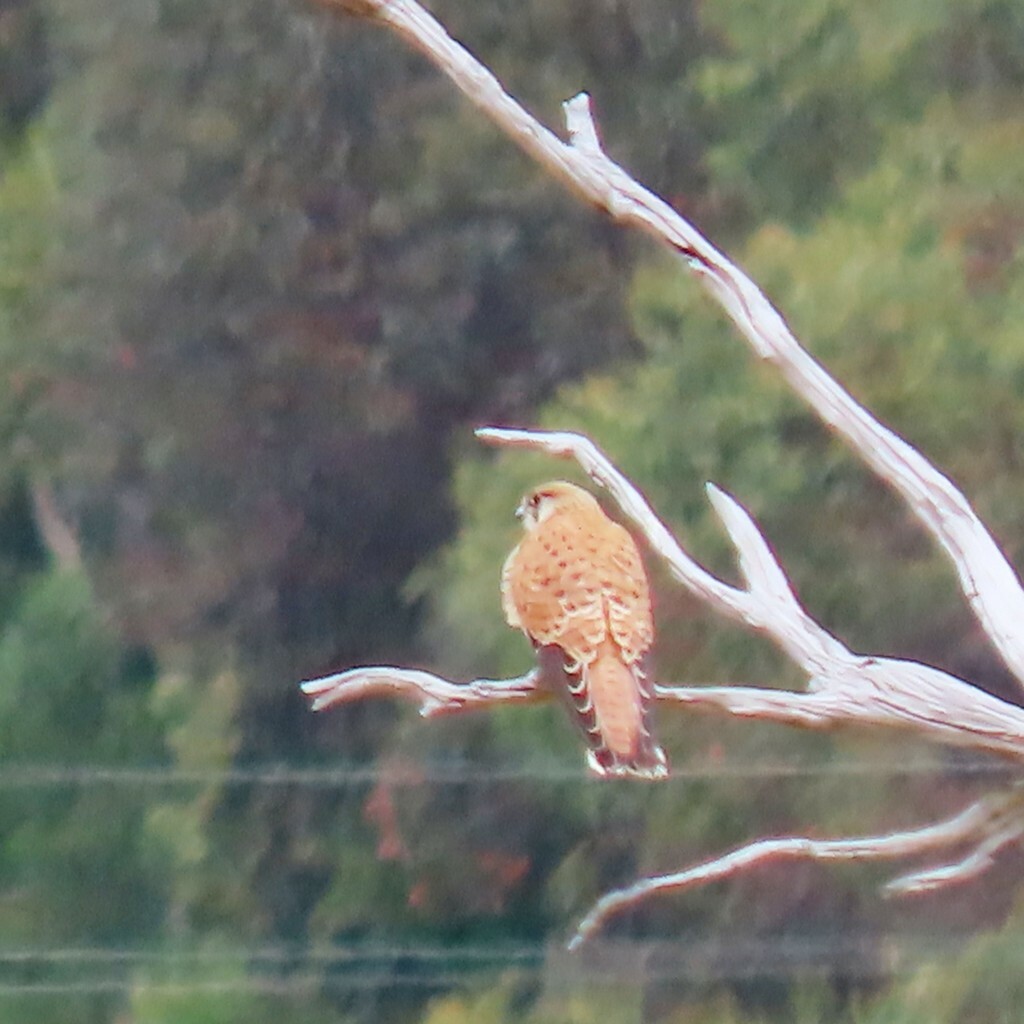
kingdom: Animalia
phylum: Chordata
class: Aves
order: Falconiformes
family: Falconidae
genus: Falco
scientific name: Falco cenchroides
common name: Nankeen kestrel
